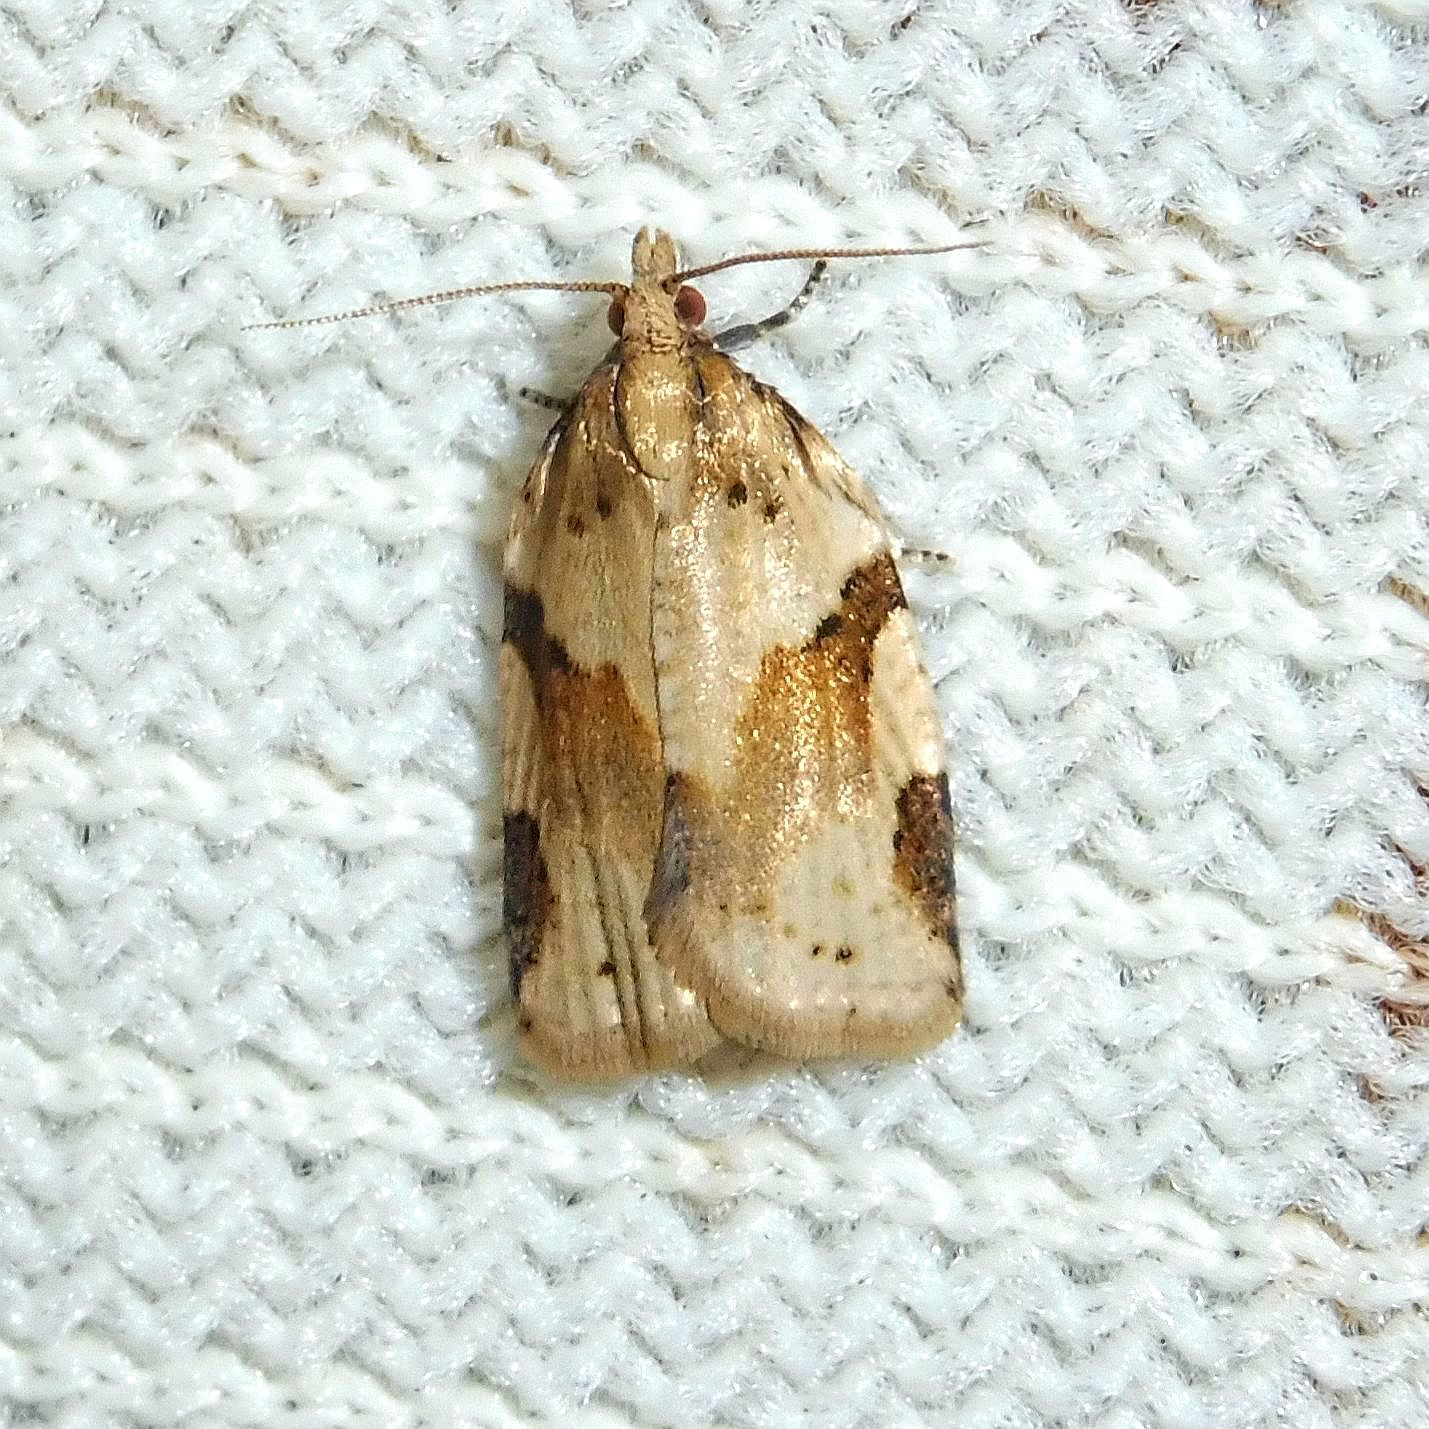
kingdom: Animalia
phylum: Arthropoda
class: Insecta
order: Lepidoptera
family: Tortricidae
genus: Clepsis
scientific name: Clepsis spectrana
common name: Cyclamen tortrix
